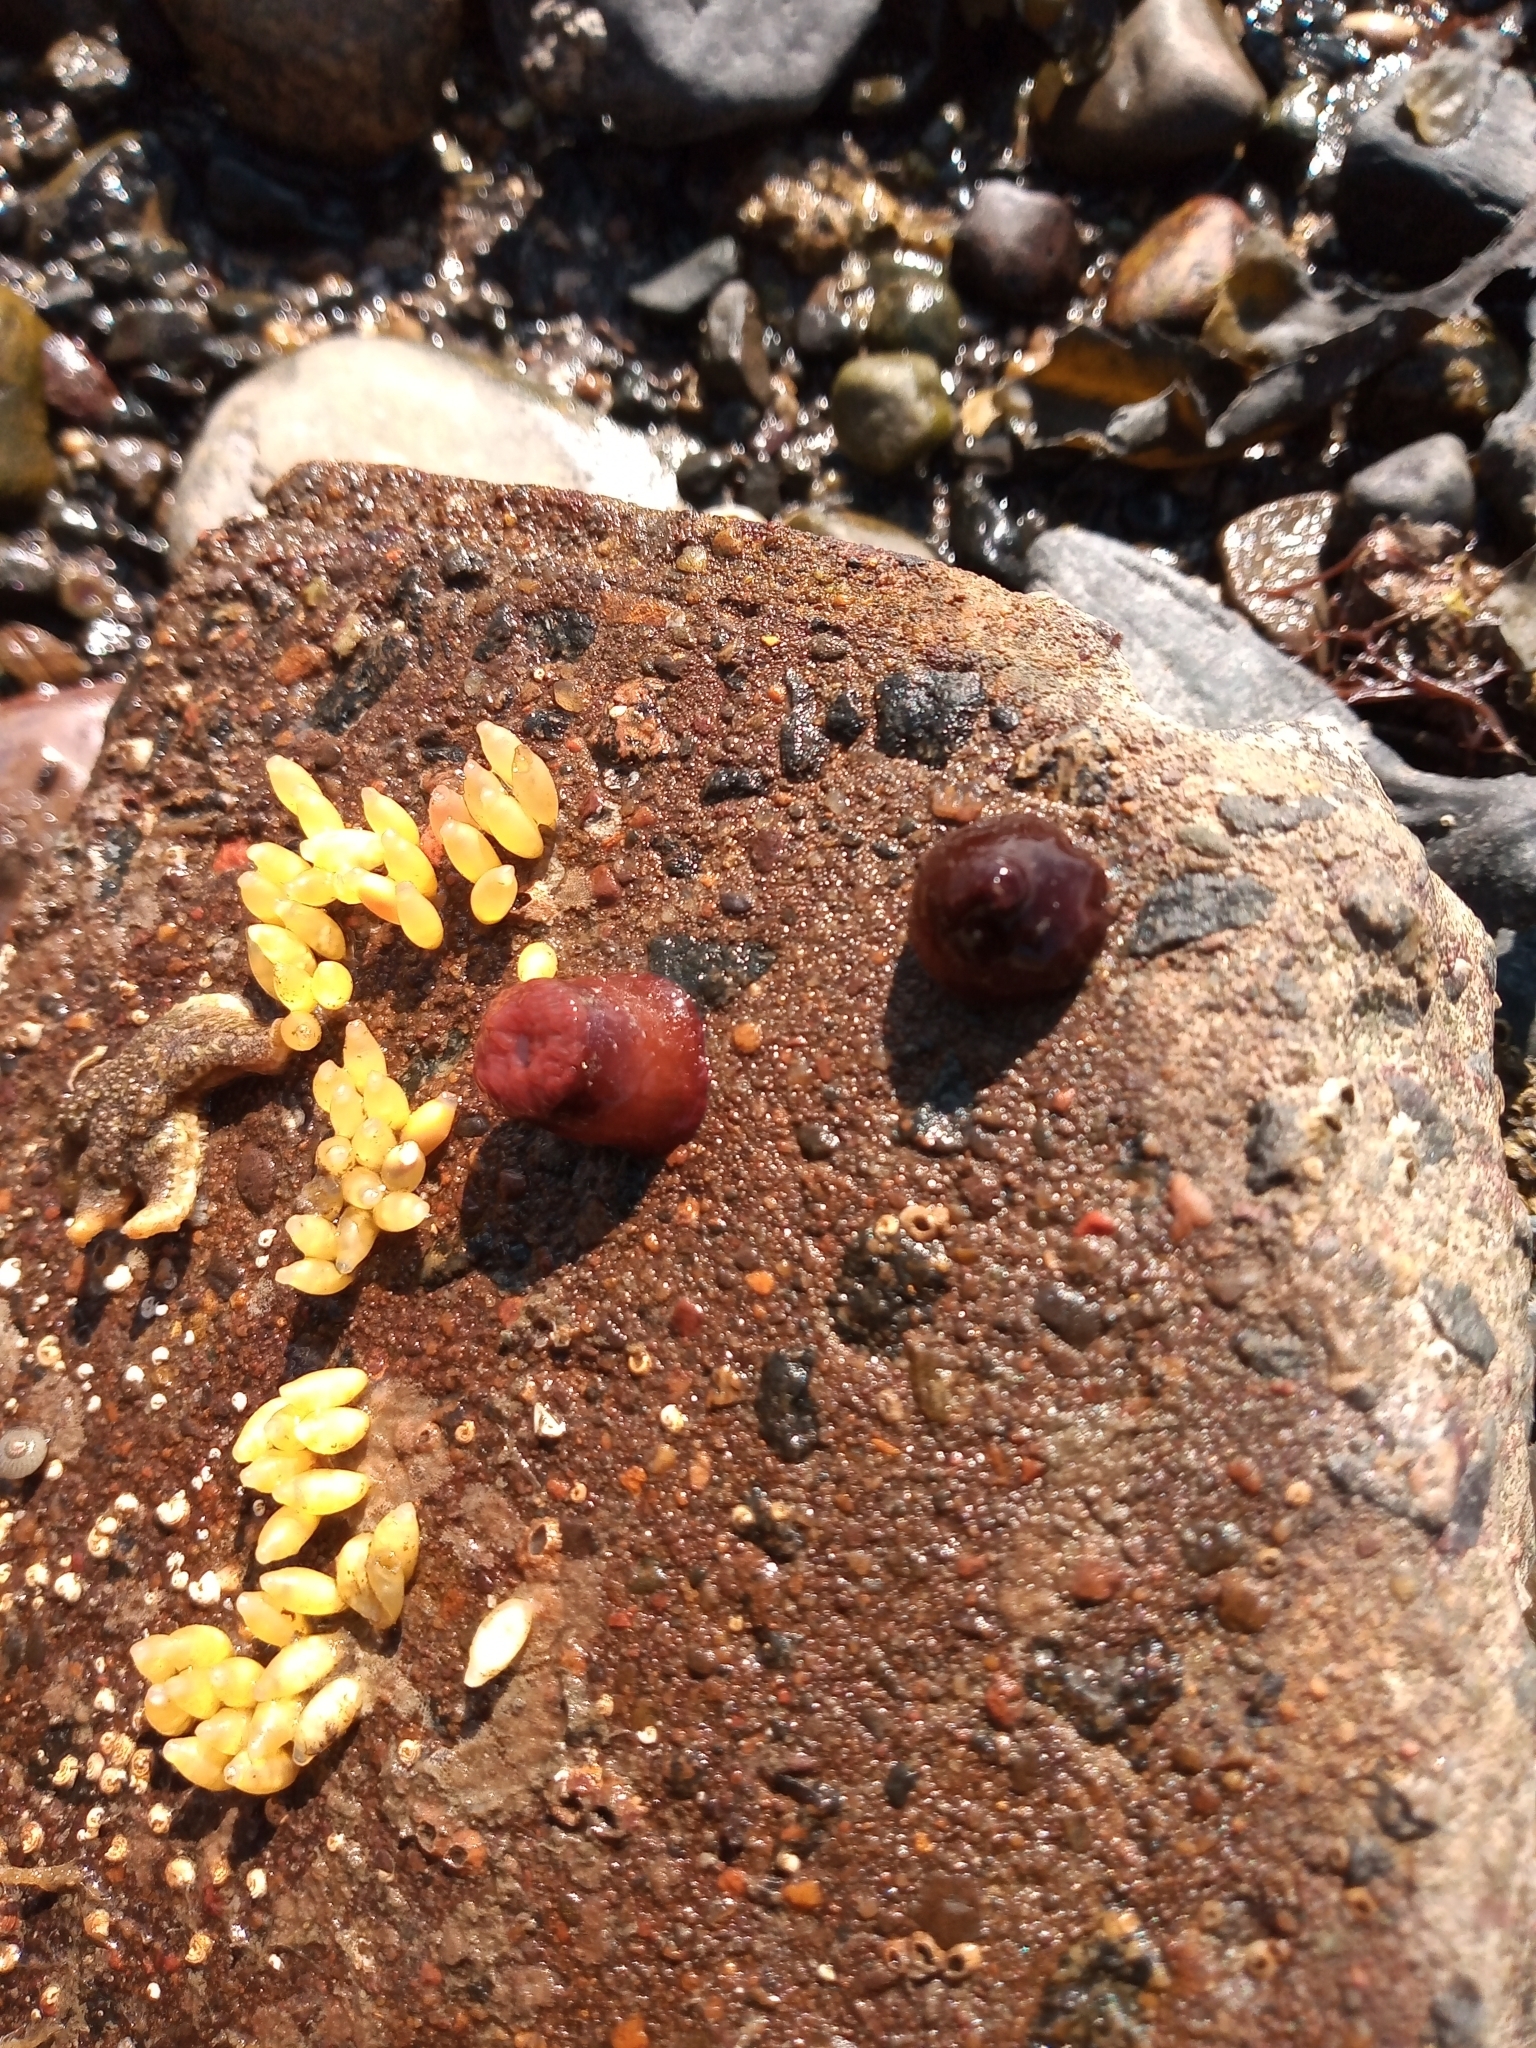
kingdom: Animalia
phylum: Cnidaria
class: Anthozoa
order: Actiniaria
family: Actiniidae
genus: Actinia
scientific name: Actinia equina
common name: Beadlet anemone
